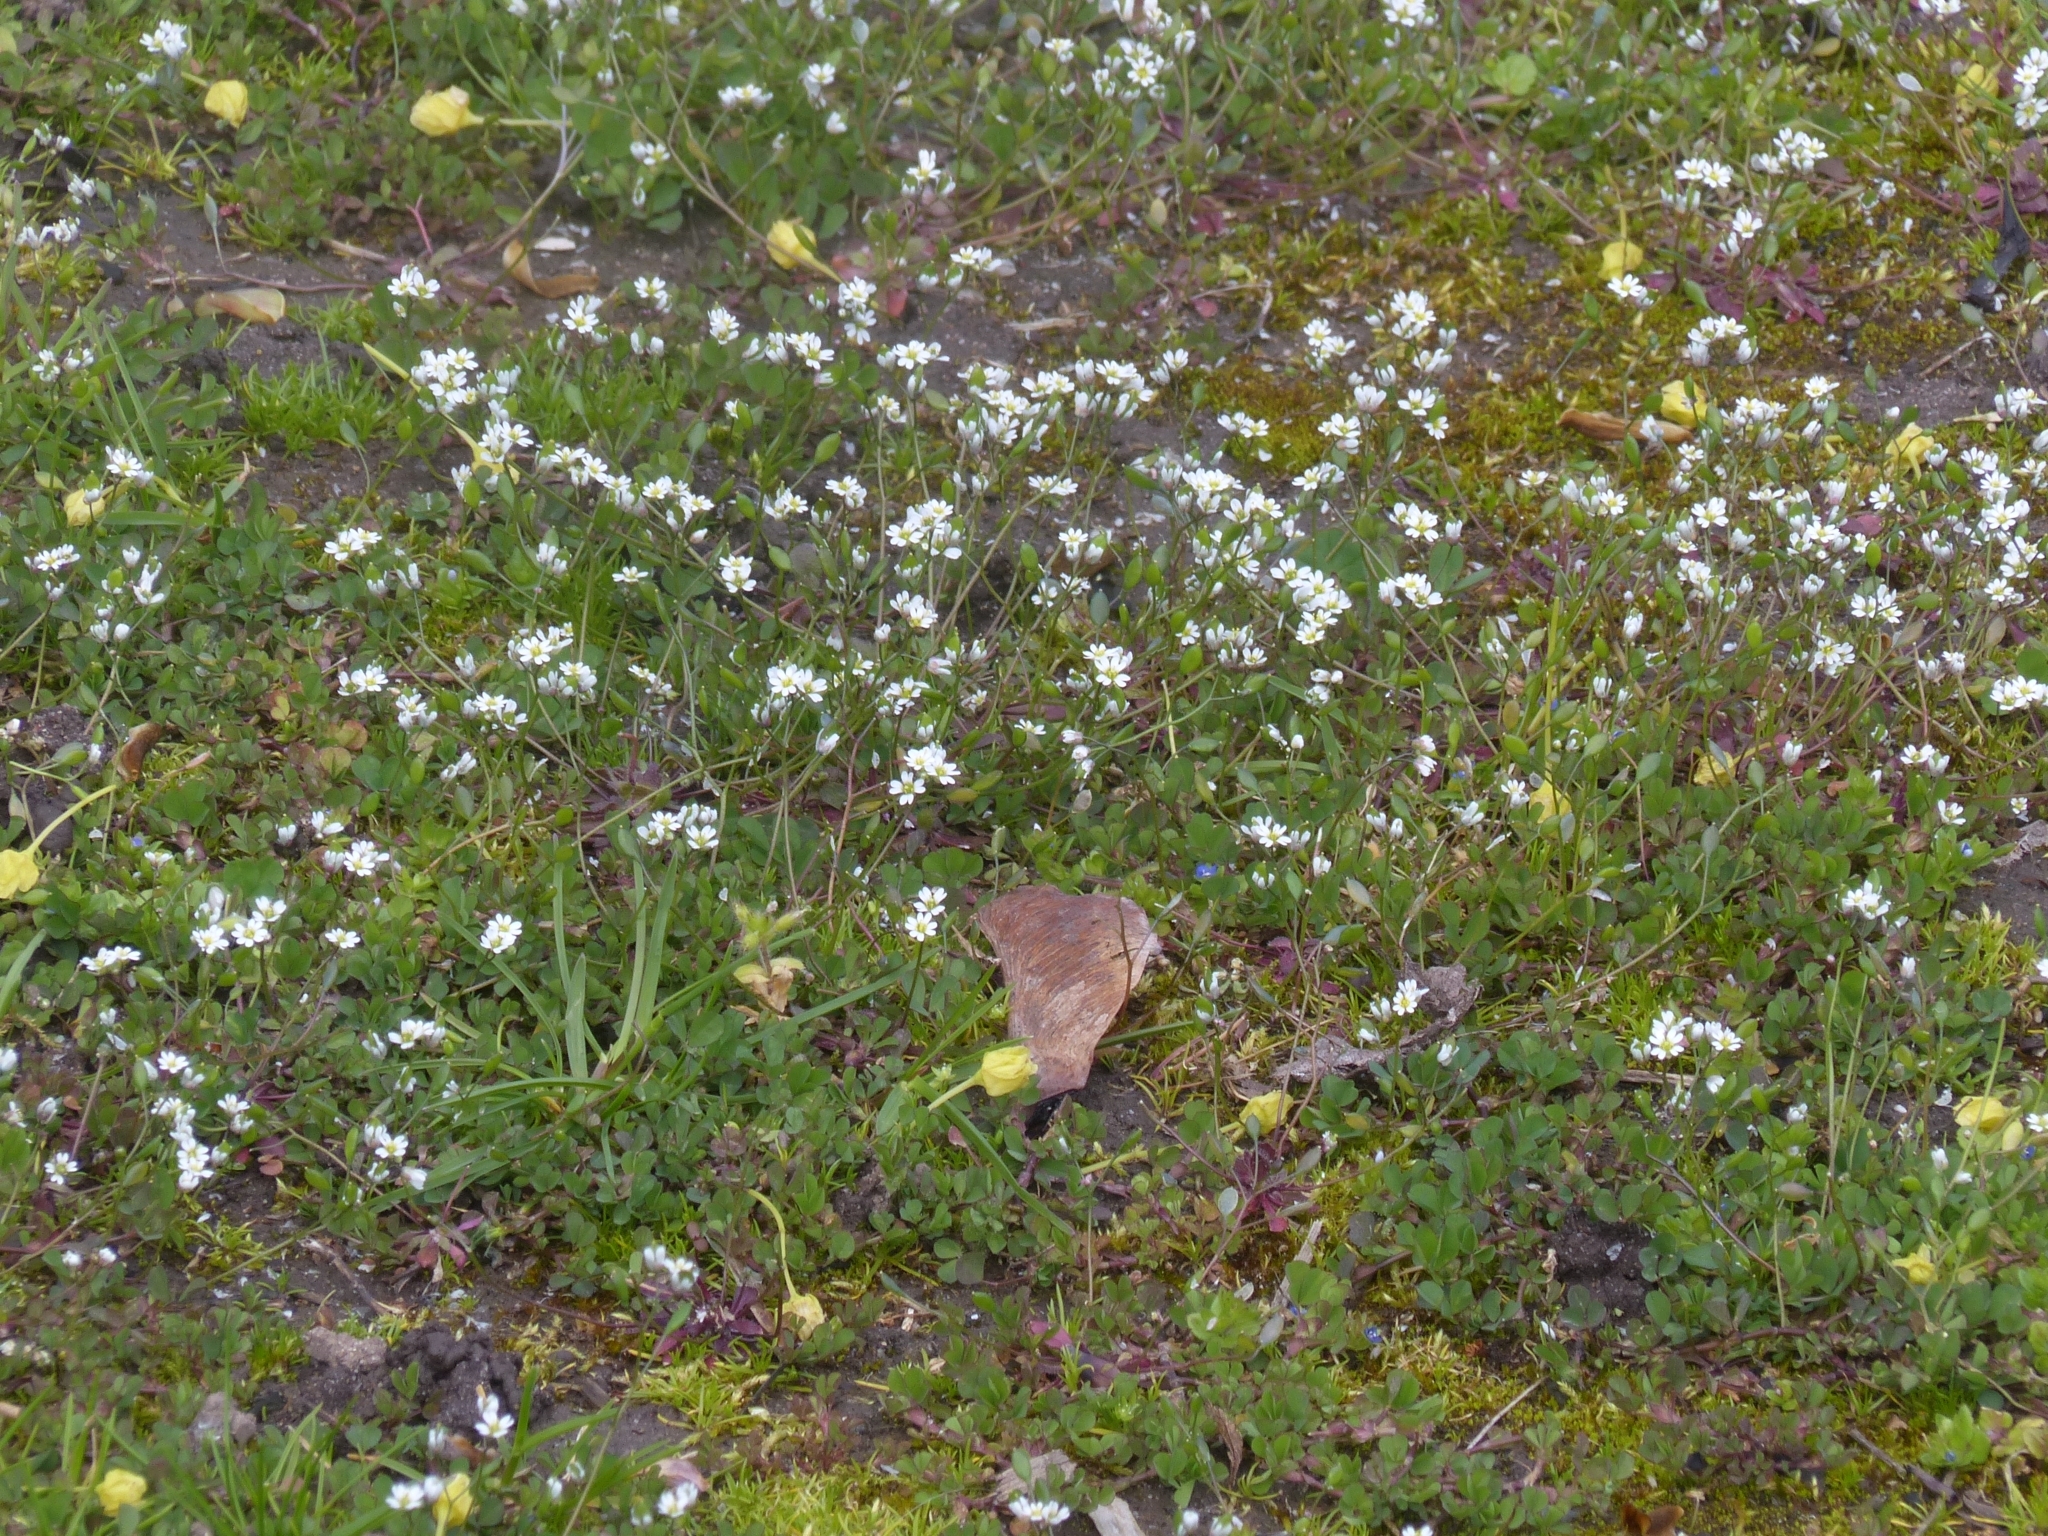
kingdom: Plantae
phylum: Tracheophyta
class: Magnoliopsida
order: Brassicales
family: Brassicaceae
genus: Draba
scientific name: Draba verna
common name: Spring draba
